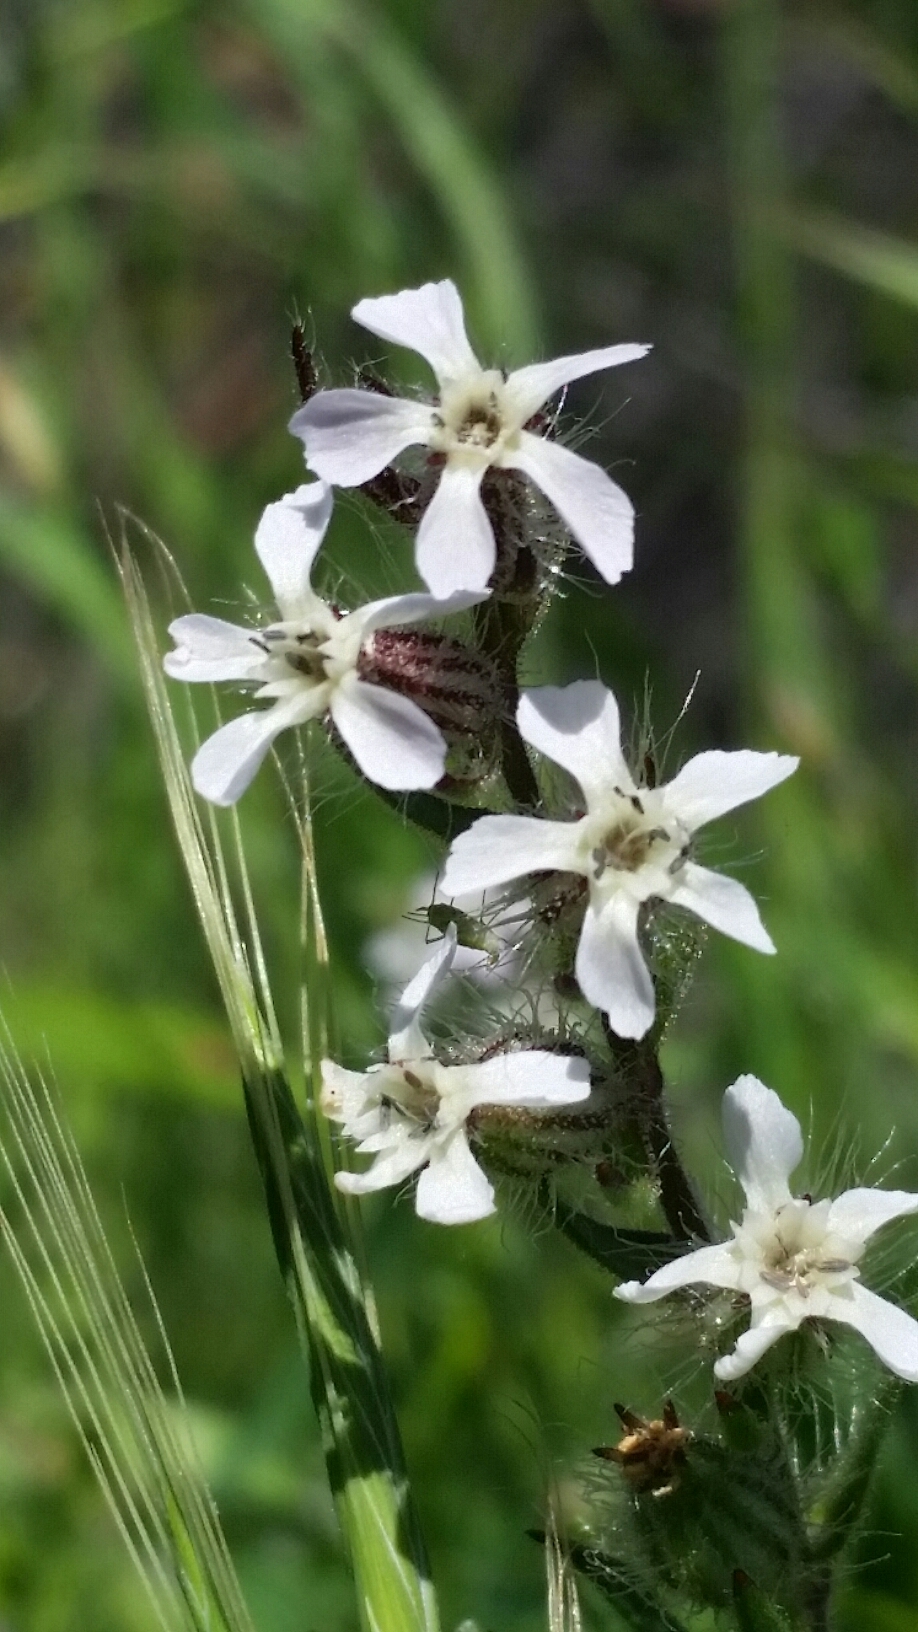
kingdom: Plantae
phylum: Tracheophyta
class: Magnoliopsida
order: Caryophyllales
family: Caryophyllaceae
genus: Silene
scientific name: Silene gallica
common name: Small-flowered catchfly
